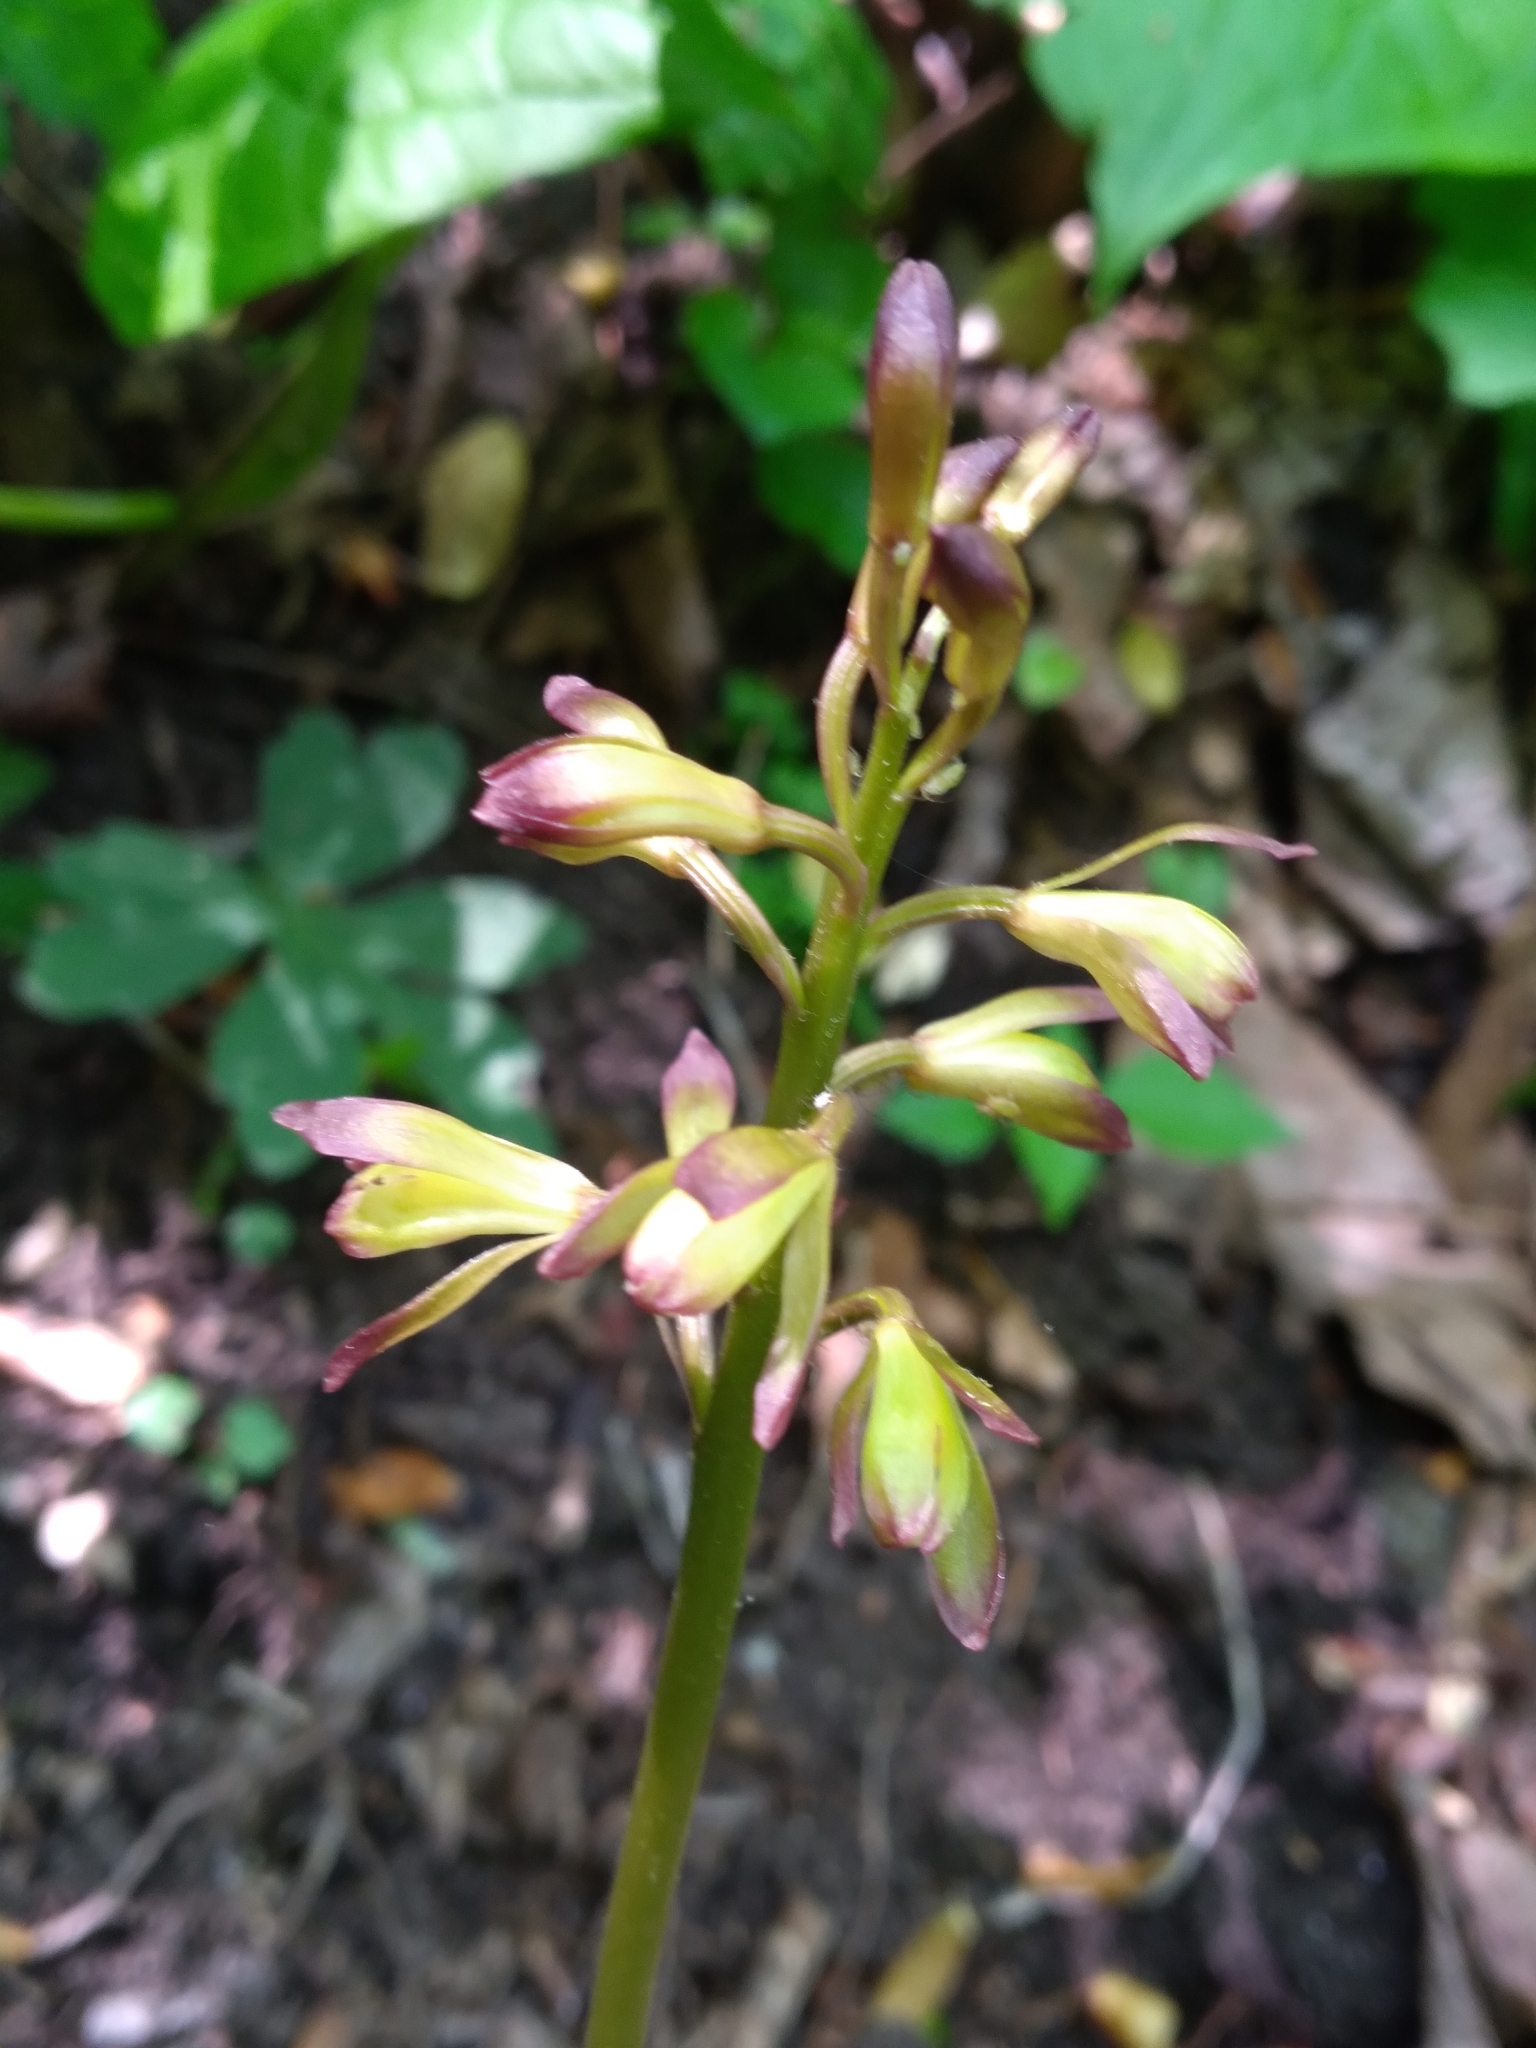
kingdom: Plantae
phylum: Tracheophyta
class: Liliopsida
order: Asparagales
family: Orchidaceae
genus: Aplectrum
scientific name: Aplectrum hyemale
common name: Adam-and-eve
